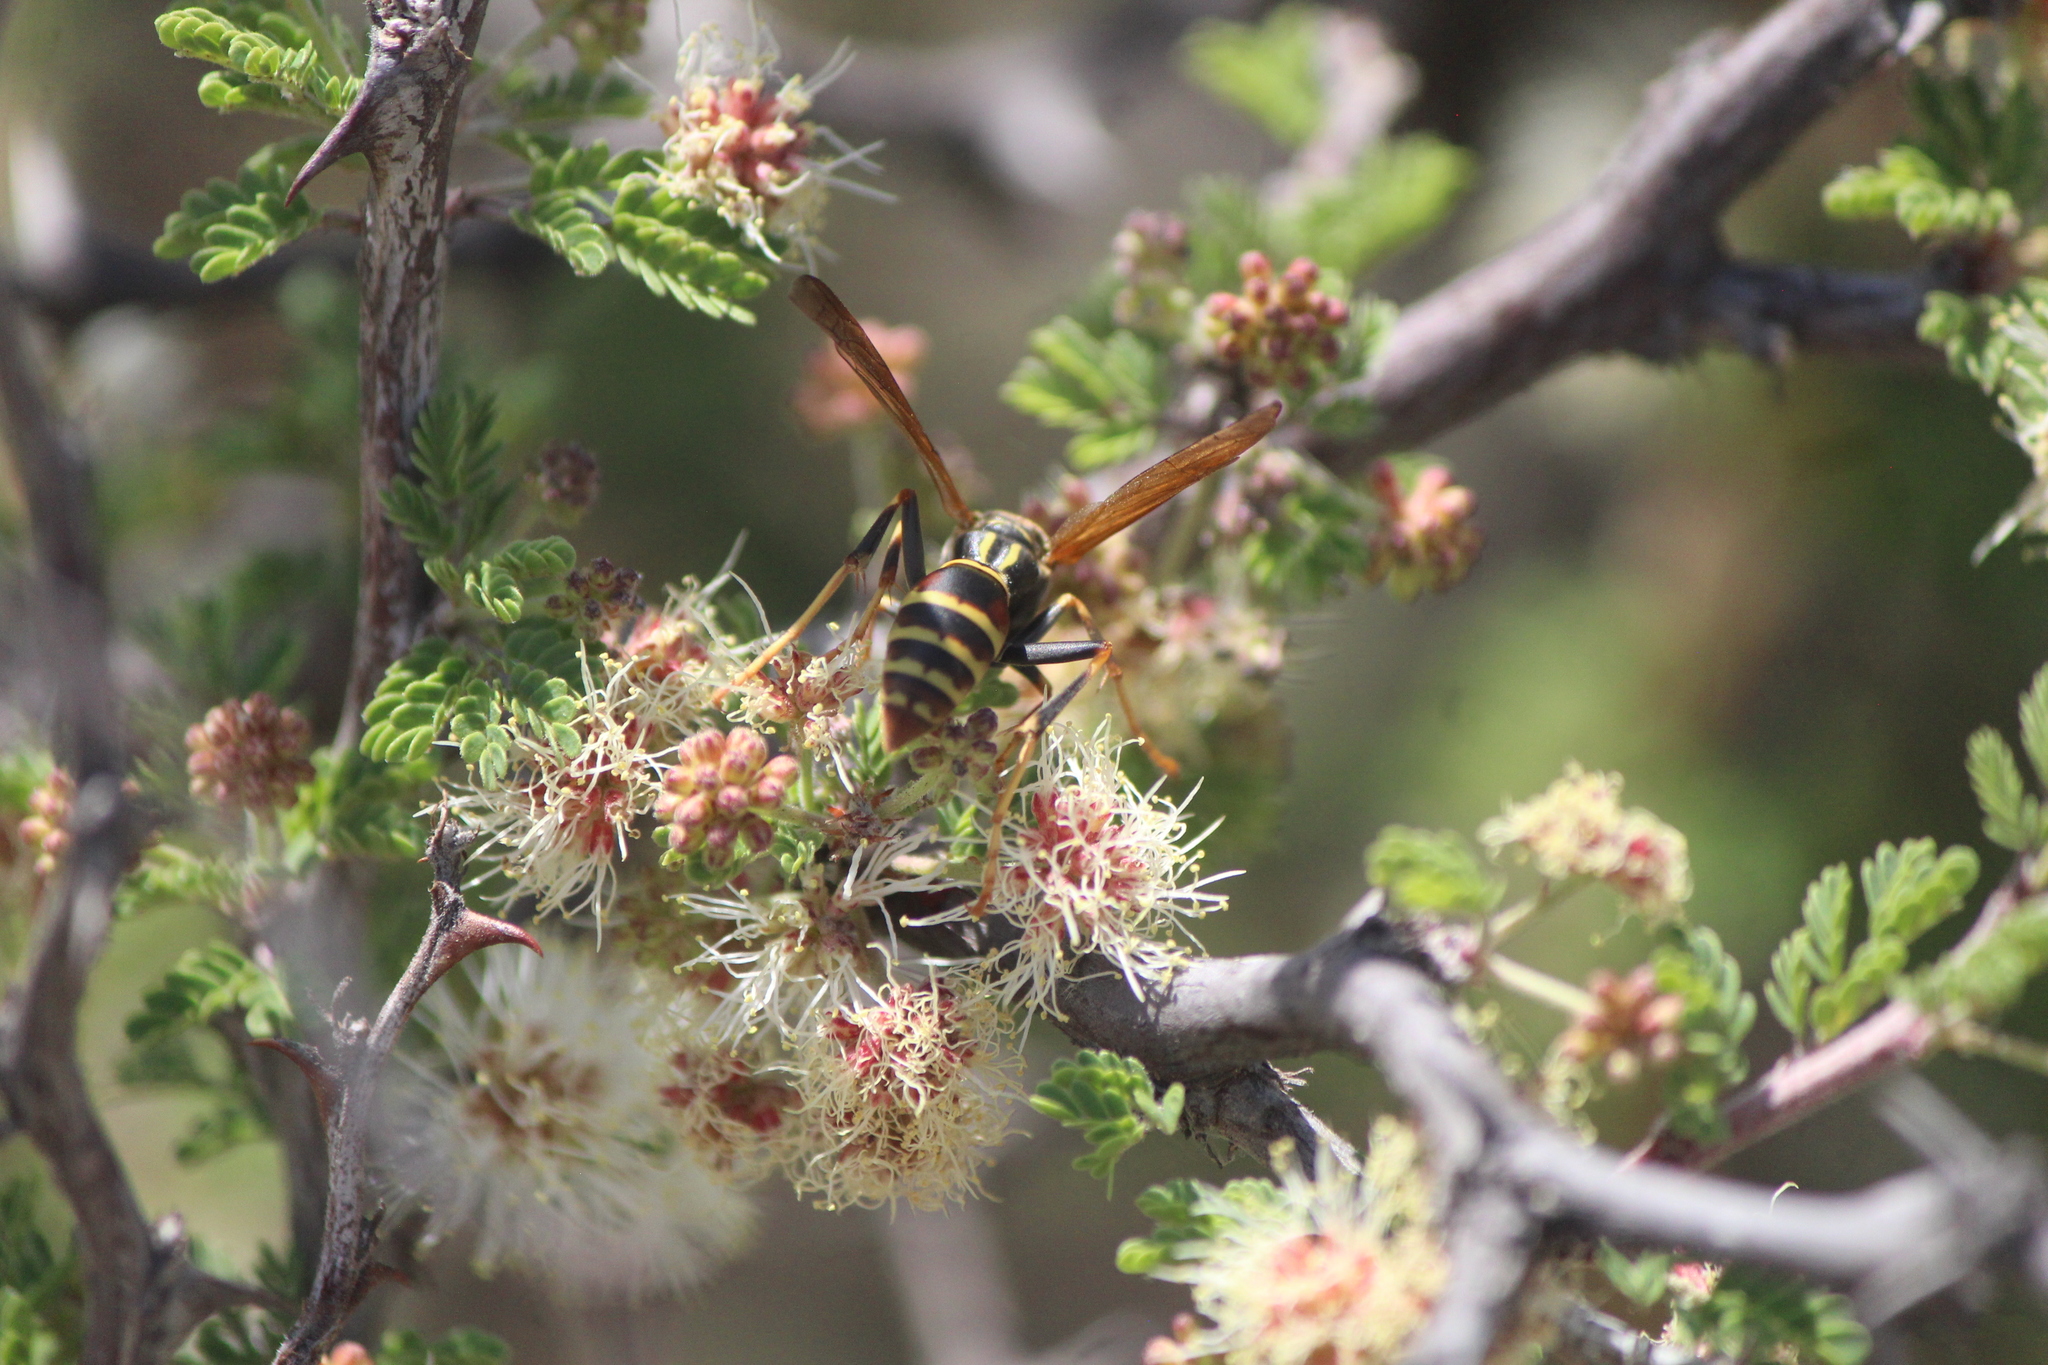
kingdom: Animalia
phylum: Arthropoda
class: Insecta
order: Hymenoptera
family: Eumenidae
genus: Polistes
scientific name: Polistes dorsalis
